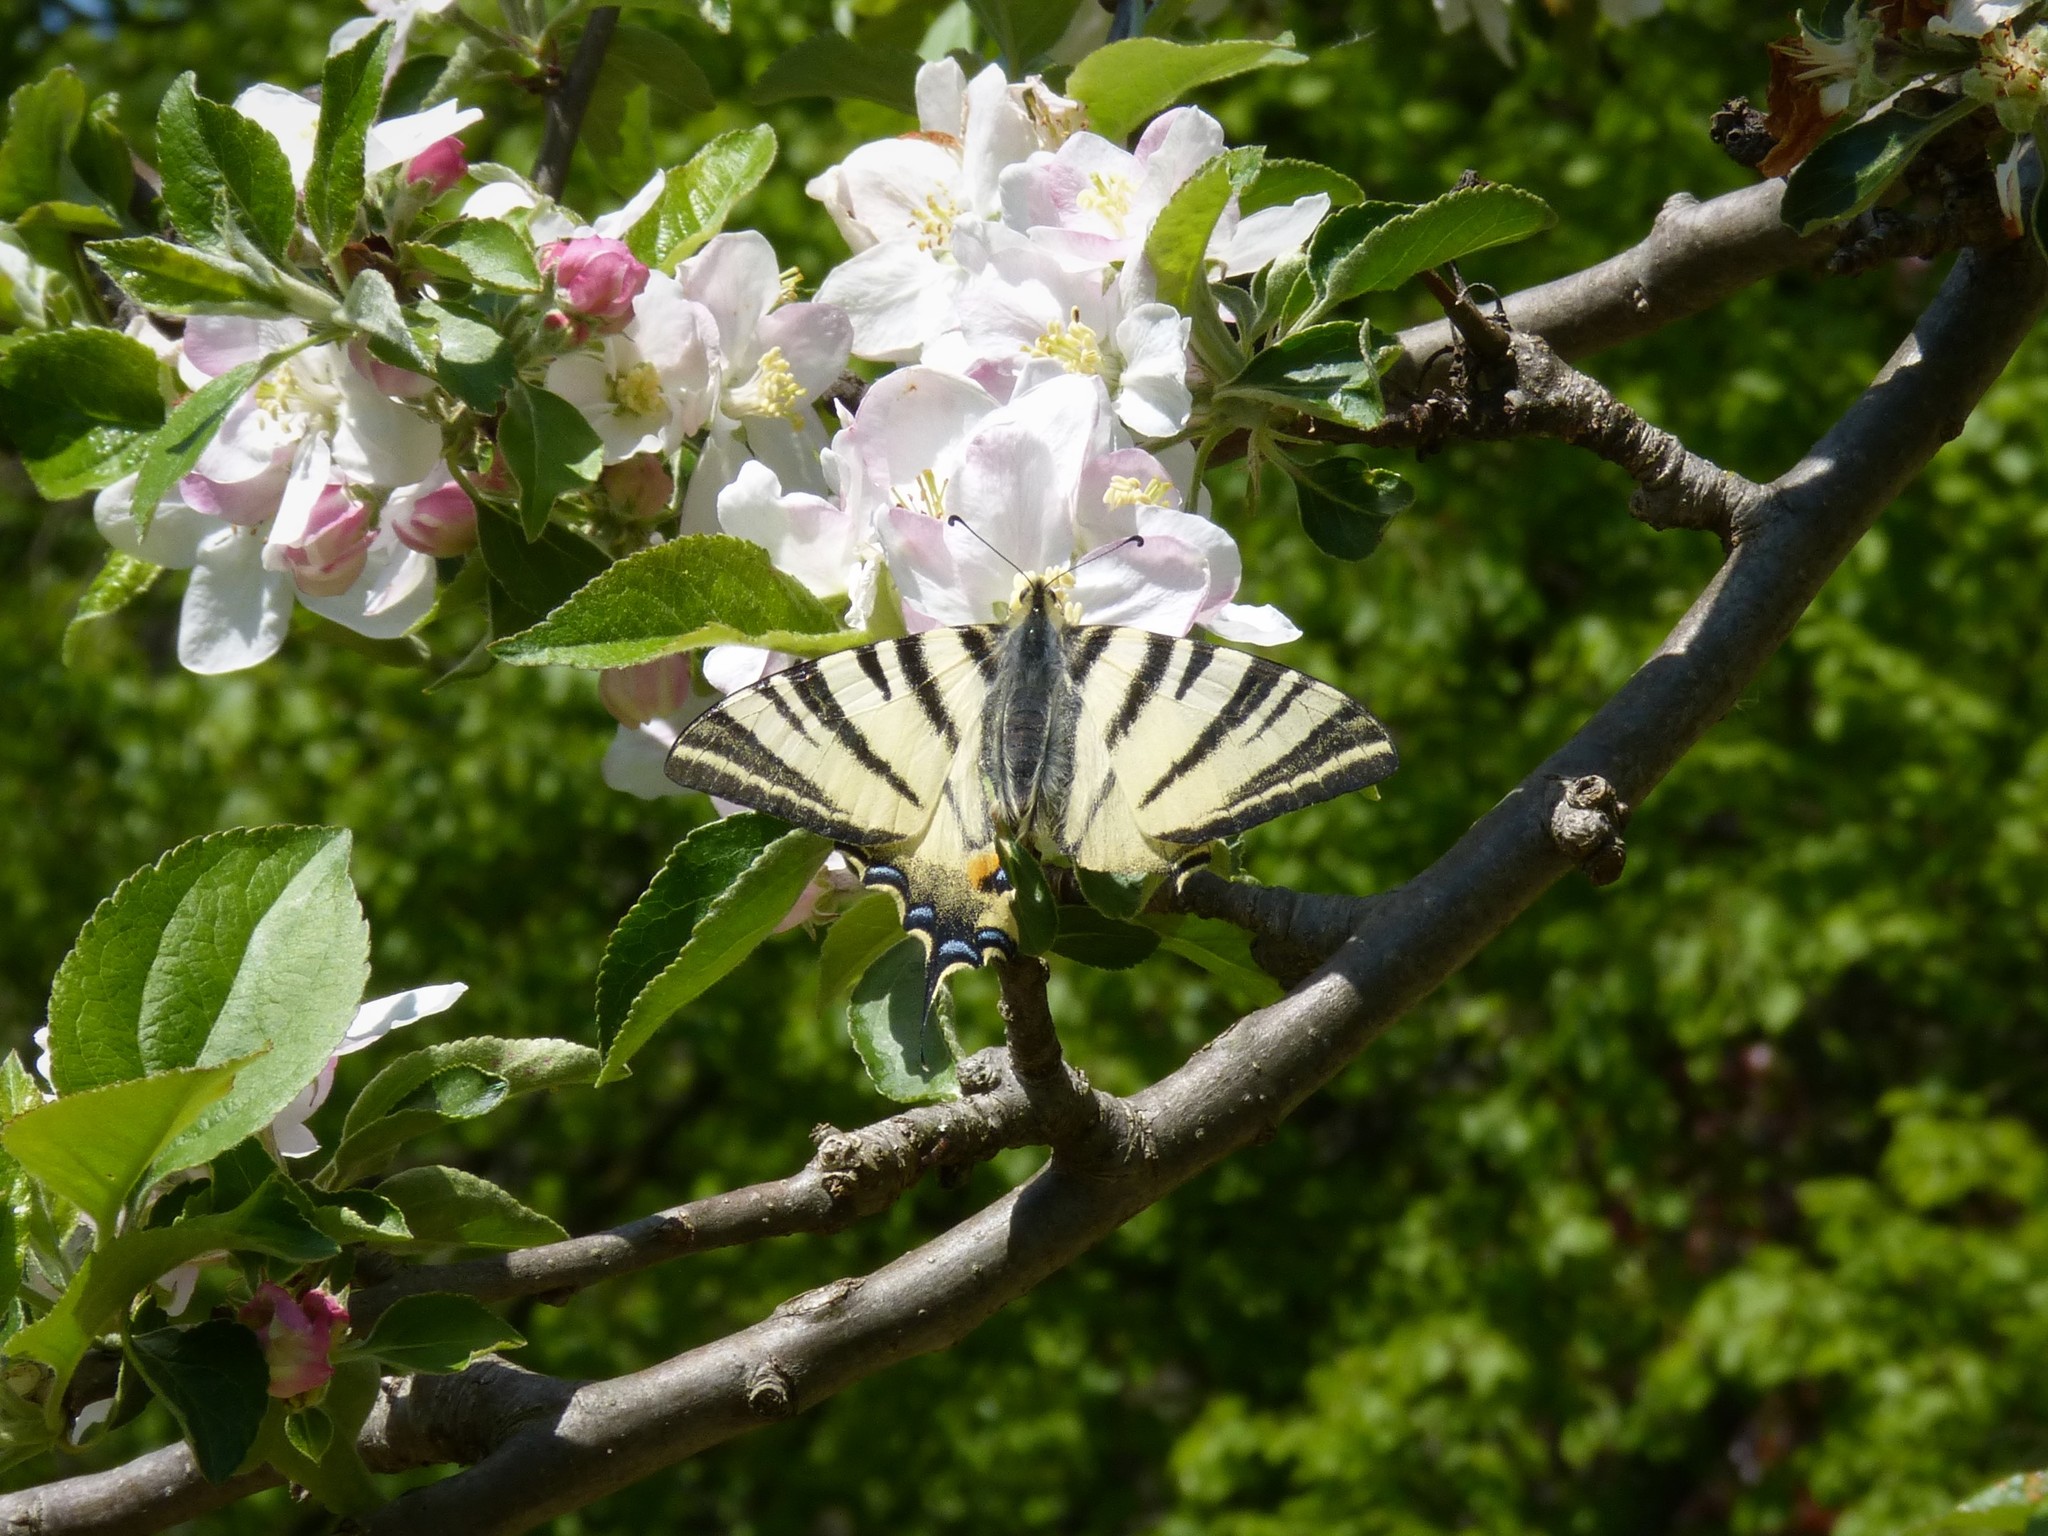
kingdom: Animalia
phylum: Arthropoda
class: Insecta
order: Lepidoptera
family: Papilionidae
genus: Iphiclides
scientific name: Iphiclides podalirius
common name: Scarce swallowtail
